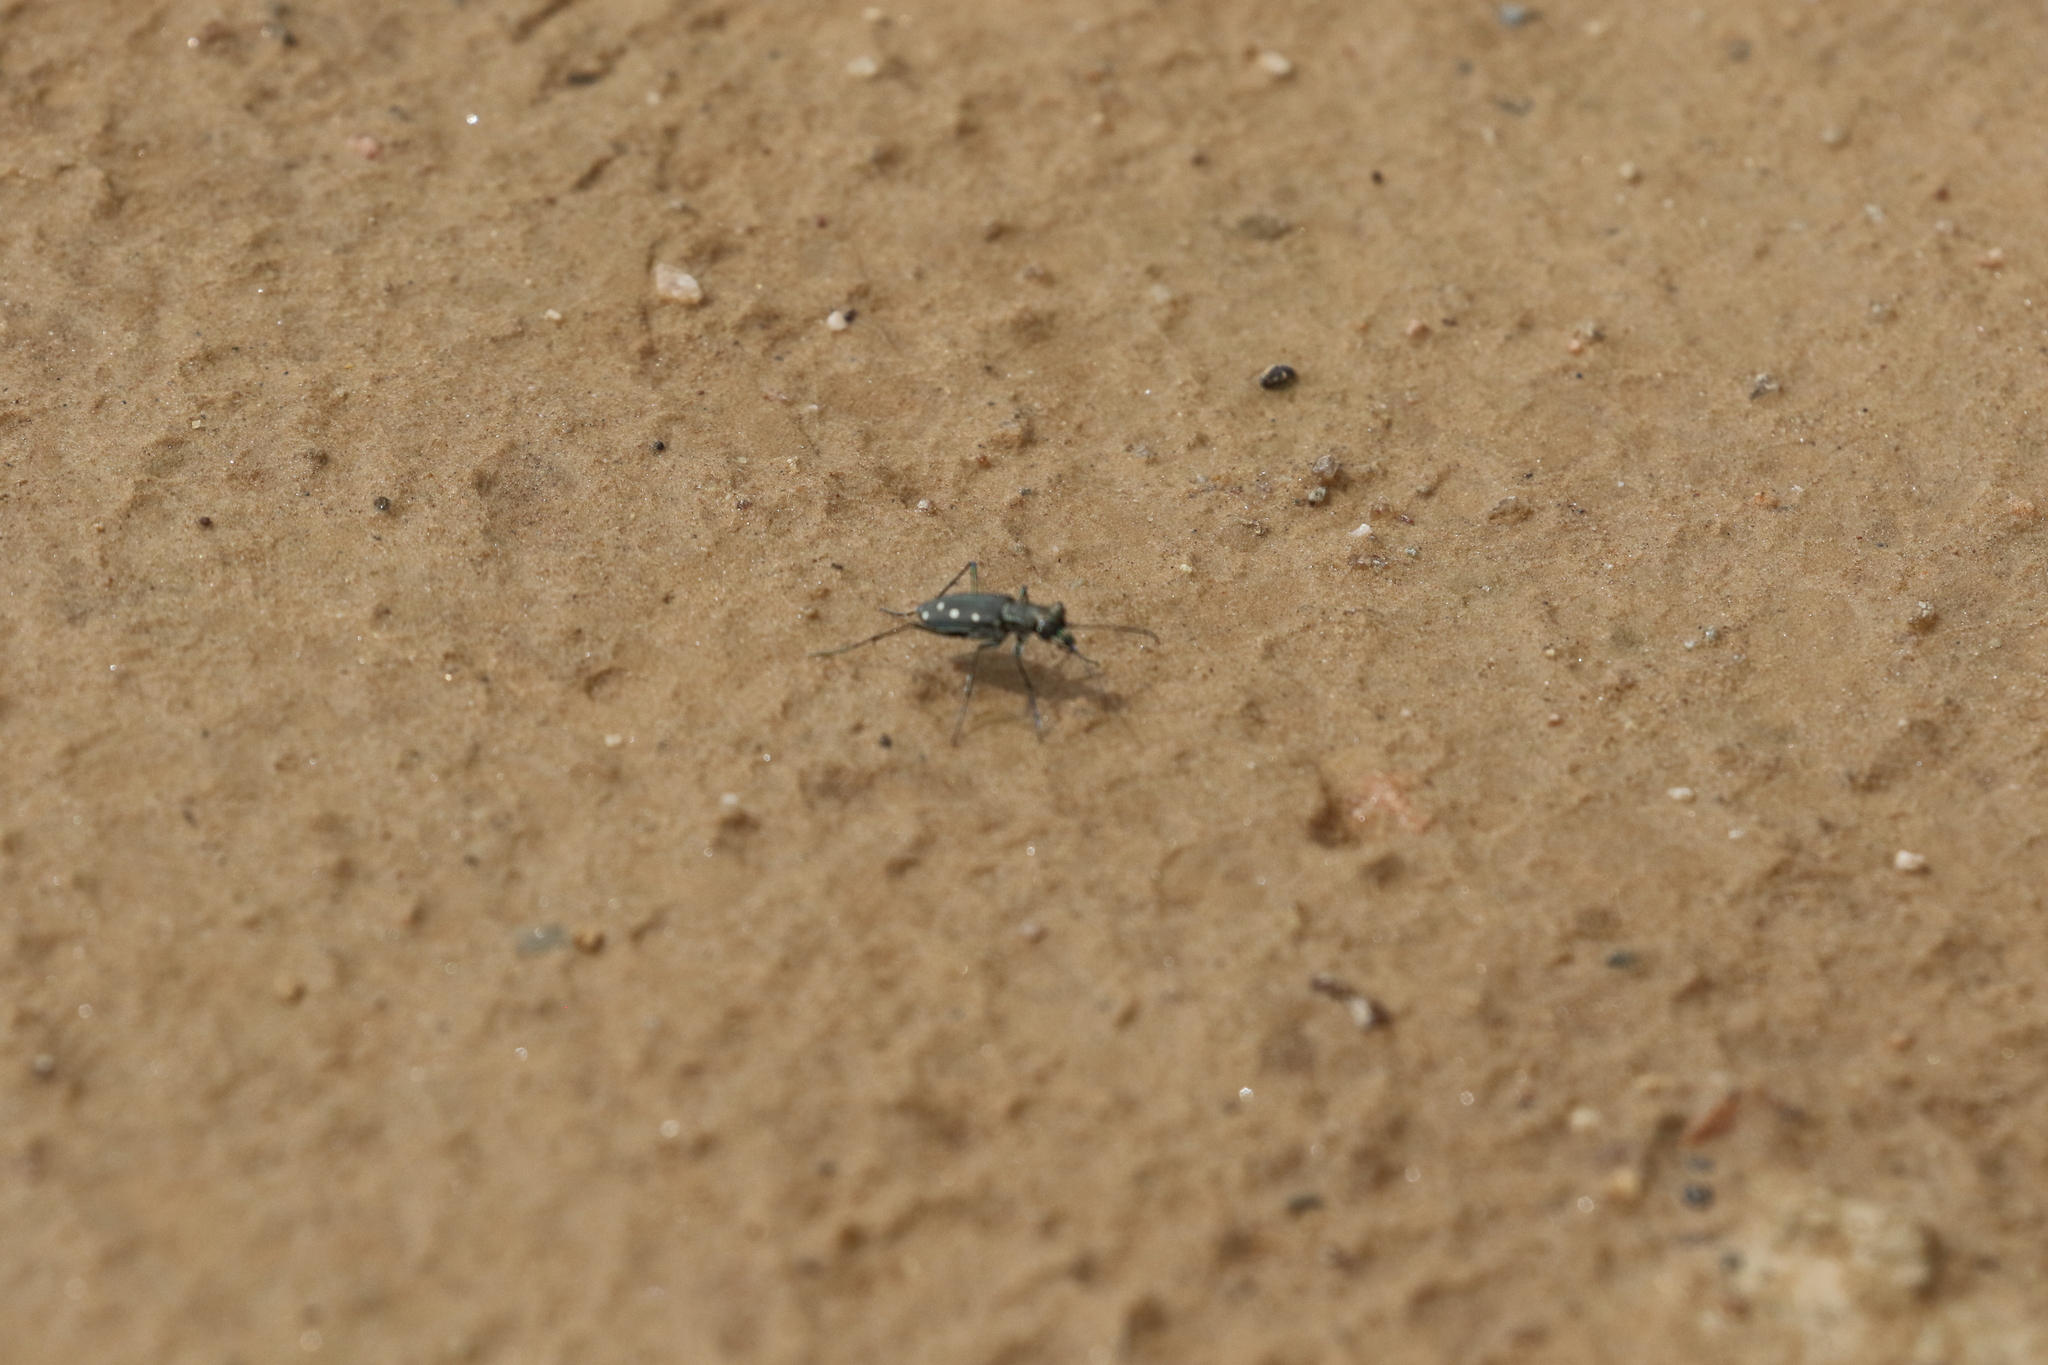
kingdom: Animalia
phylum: Arthropoda
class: Insecta
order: Coleoptera
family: Carabidae
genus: Cicindela
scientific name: Cicindela ocellata
